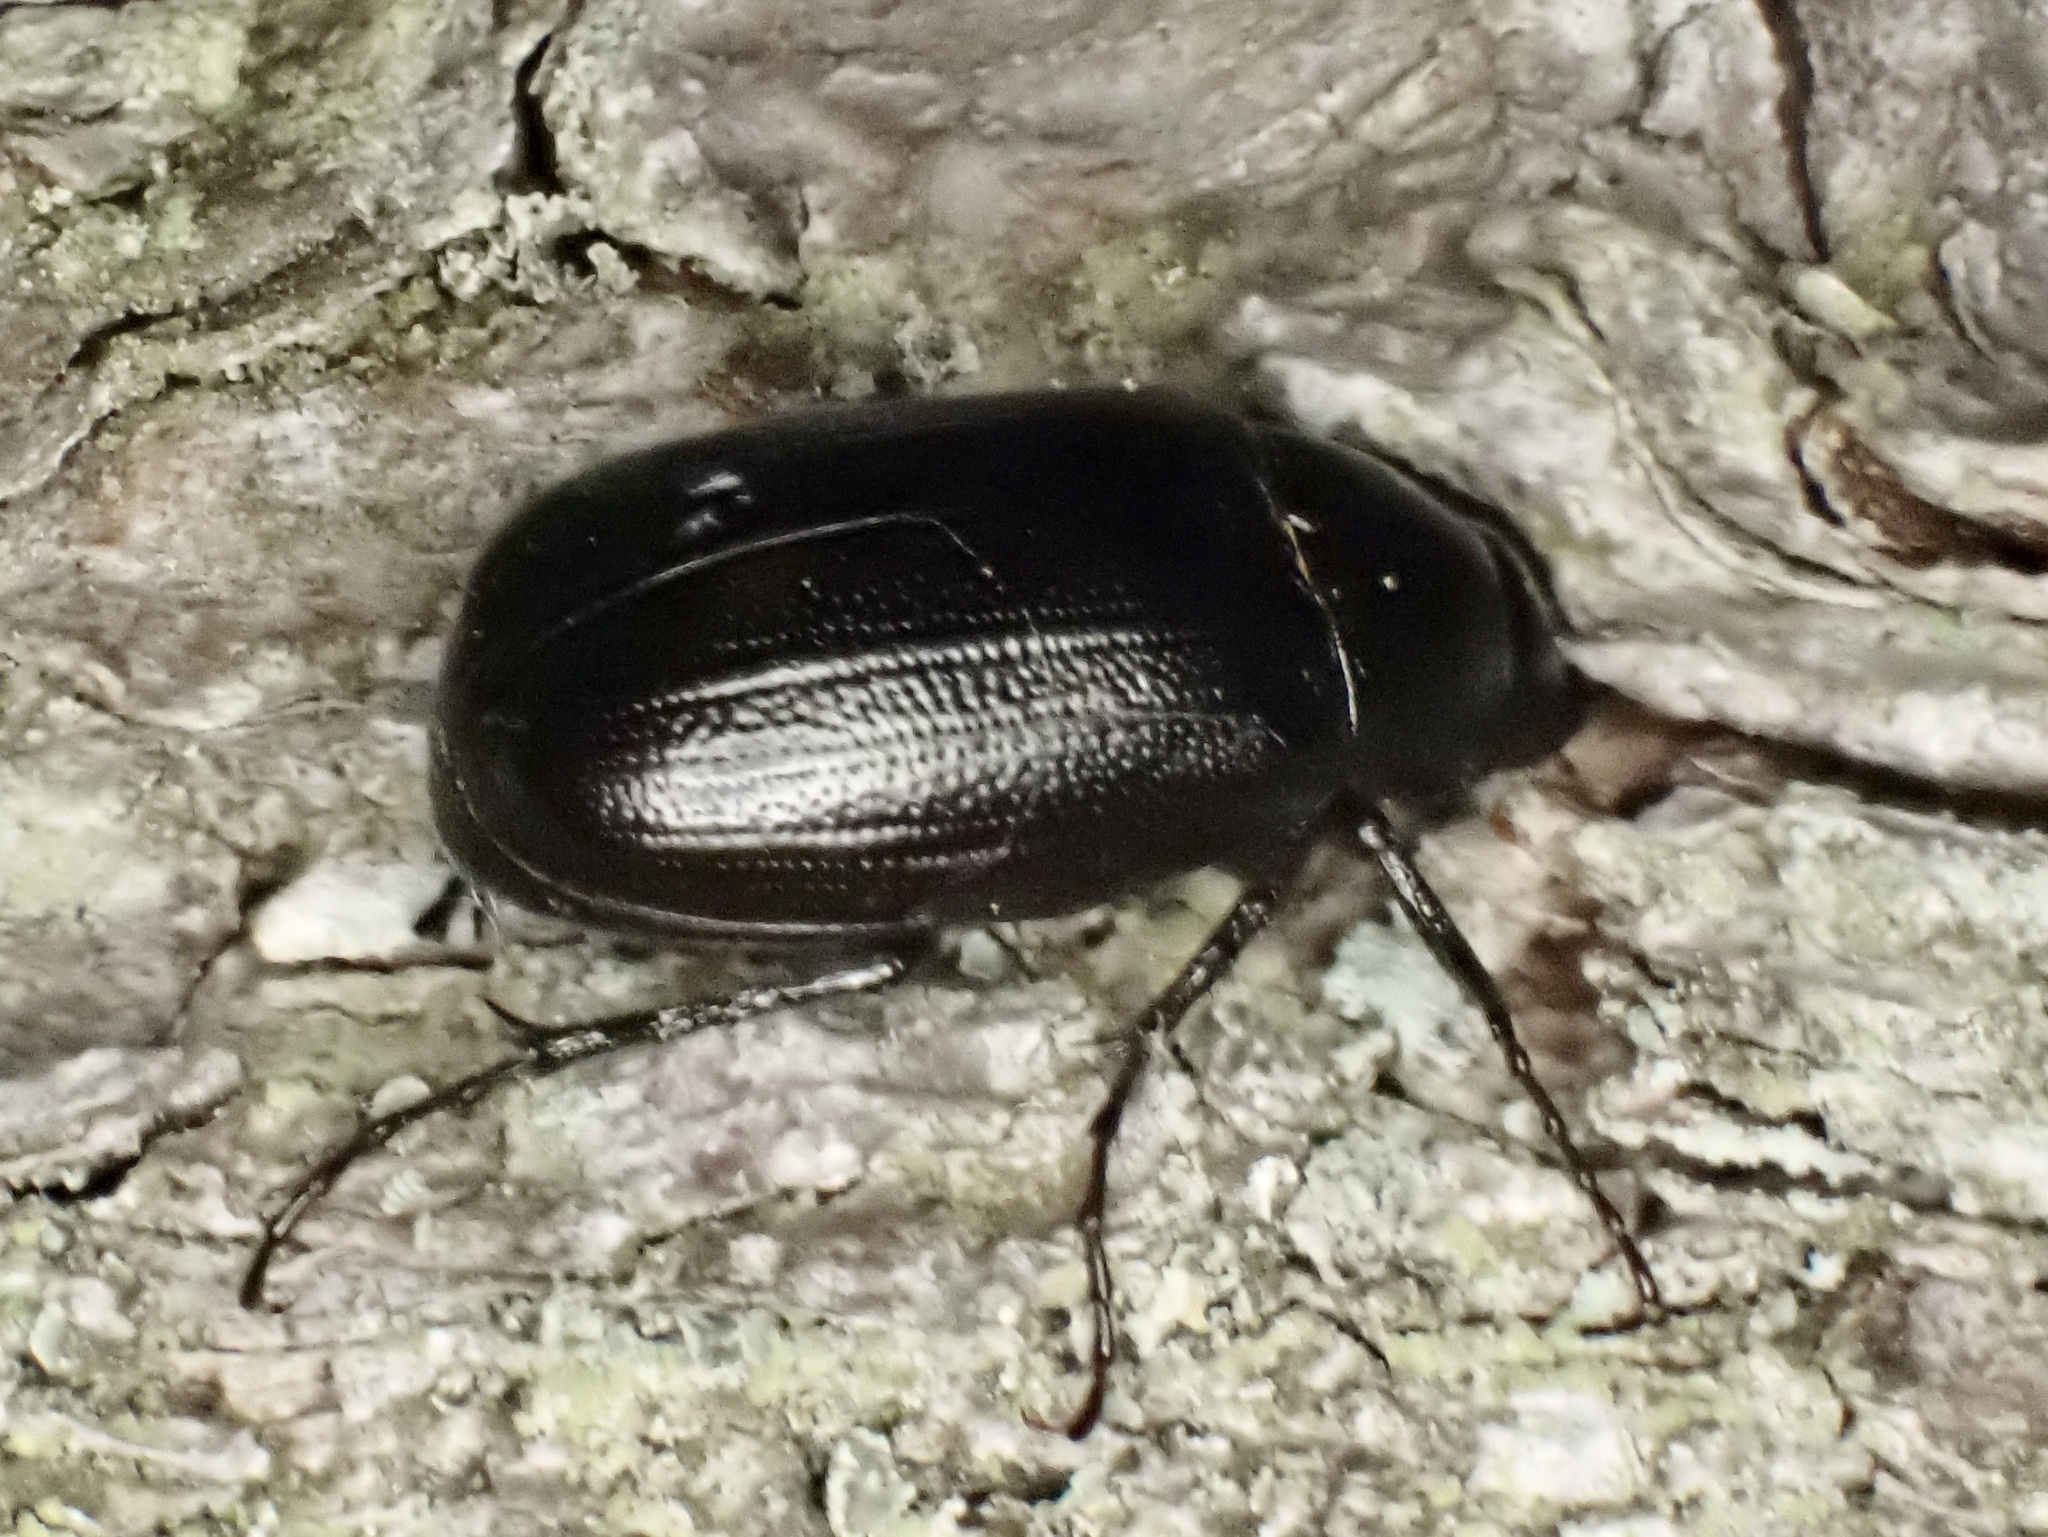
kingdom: Animalia
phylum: Arthropoda
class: Insecta
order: Coleoptera
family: Scarabaeidae
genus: Diplotaxis
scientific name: Diplotaxis tristis
